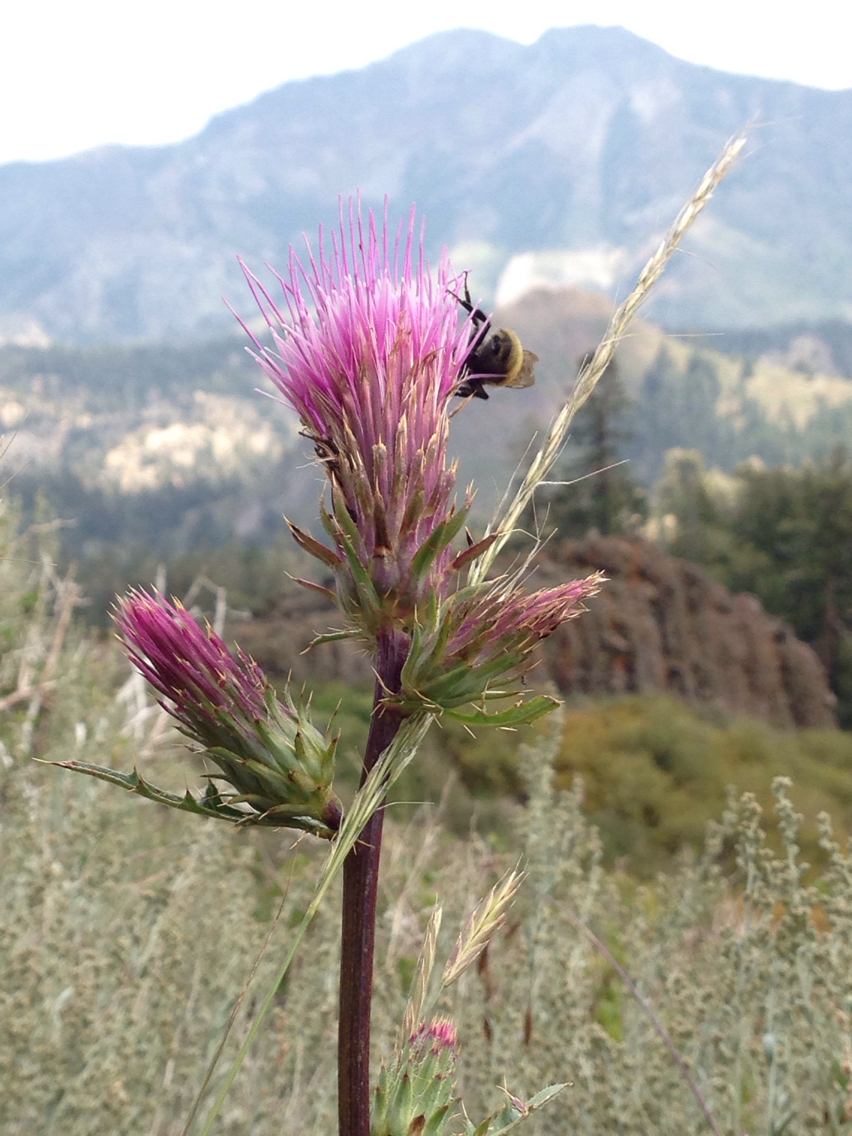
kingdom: Plantae
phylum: Tracheophyta
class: Magnoliopsida
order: Asterales
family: Asteraceae
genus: Cirsium
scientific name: Cirsium andersonii
